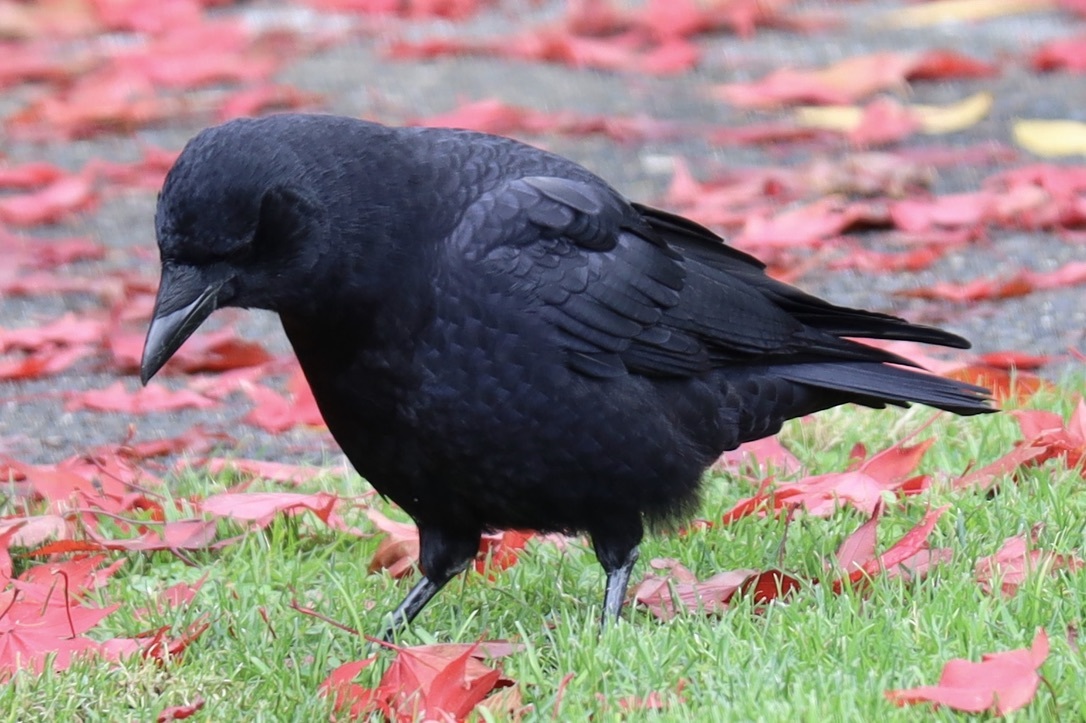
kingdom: Animalia
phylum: Chordata
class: Aves
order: Passeriformes
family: Corvidae
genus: Corvus
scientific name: Corvus brachyrhynchos
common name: American crow
